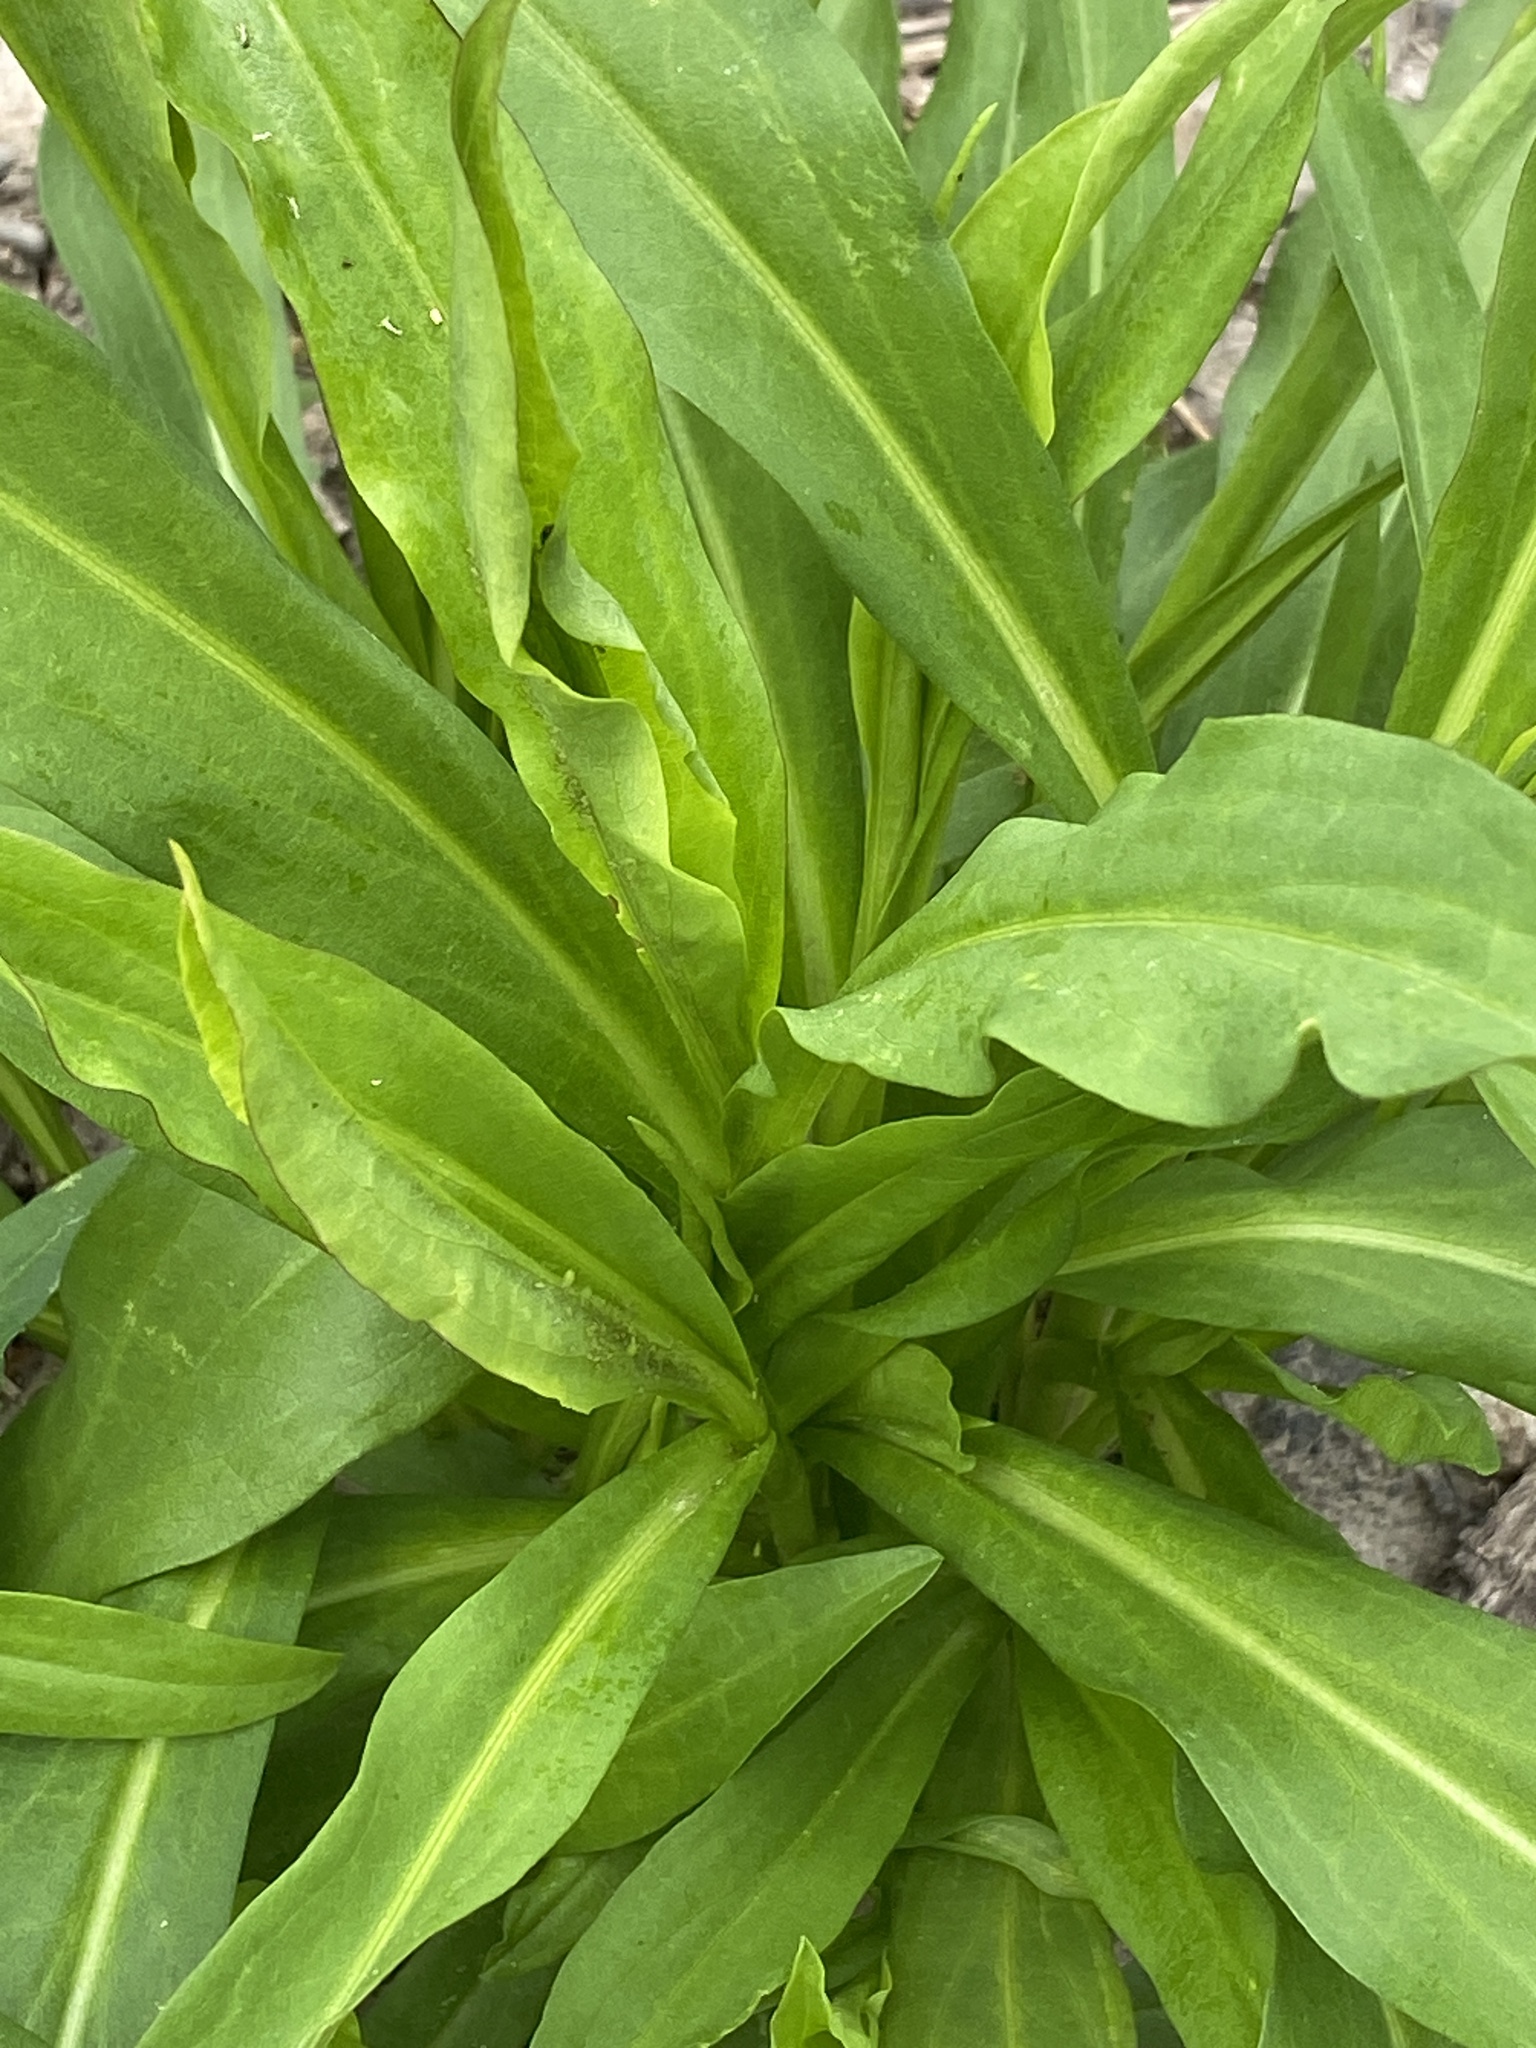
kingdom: Plantae
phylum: Tracheophyta
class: Magnoliopsida
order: Asterales
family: Asteraceae
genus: Solidago
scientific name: Solidago sempervirens
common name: Salt-marsh goldenrod
